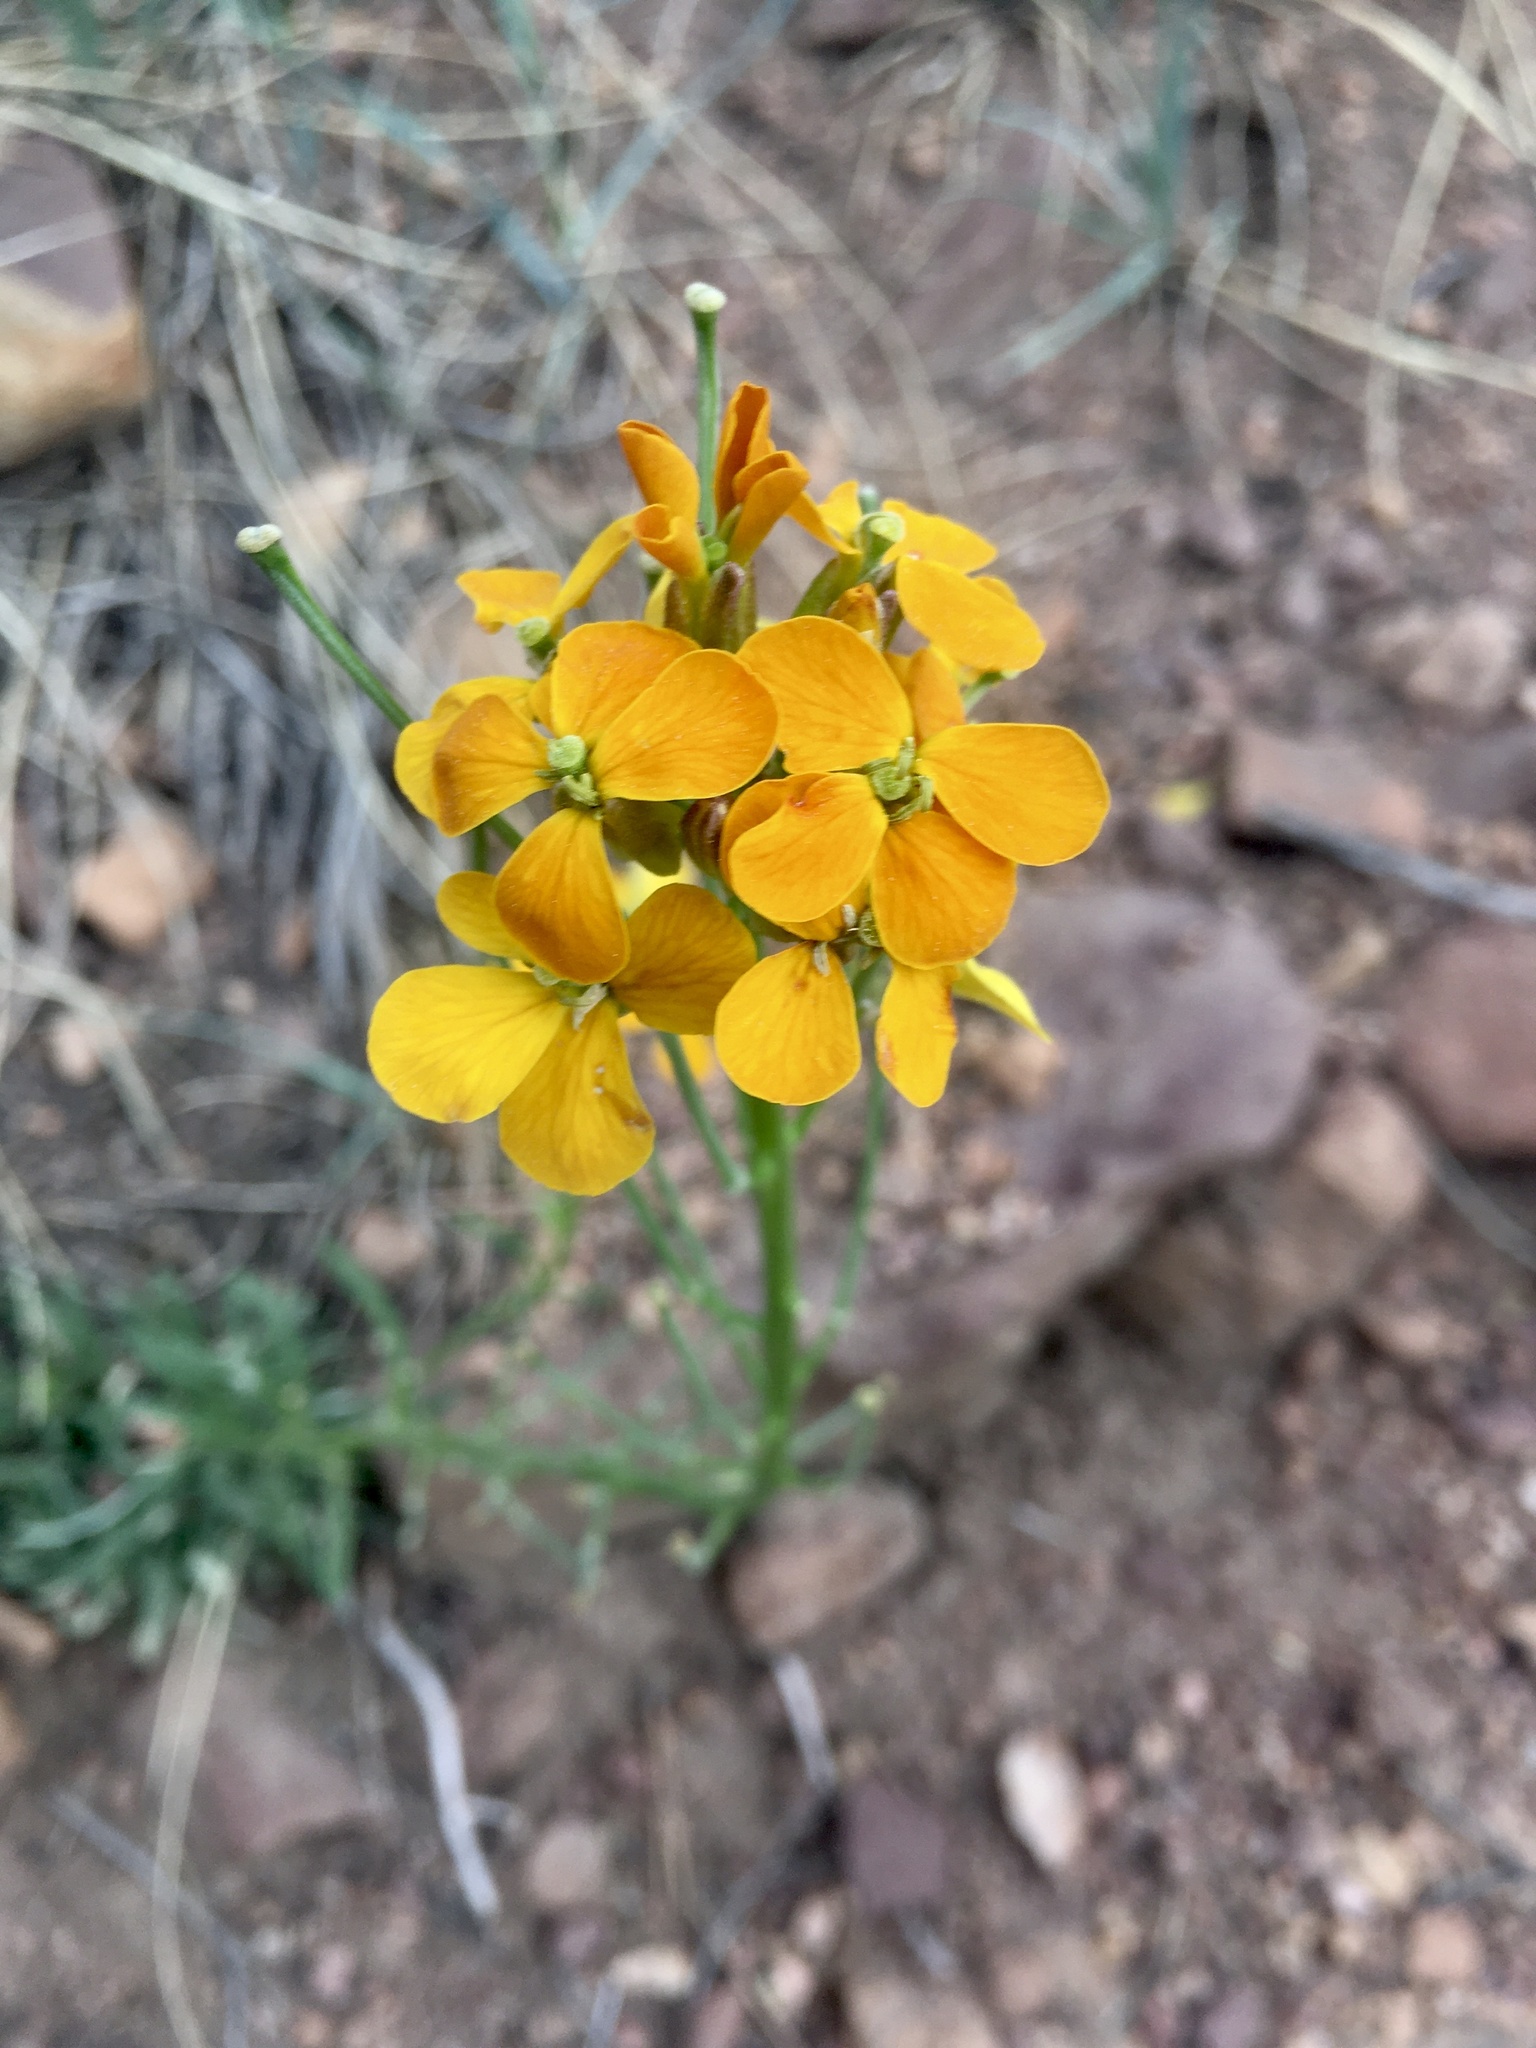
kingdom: Plantae
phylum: Tracheophyta
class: Magnoliopsida
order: Brassicales
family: Brassicaceae
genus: Erysimum
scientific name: Erysimum capitatum
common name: Western wallflower
